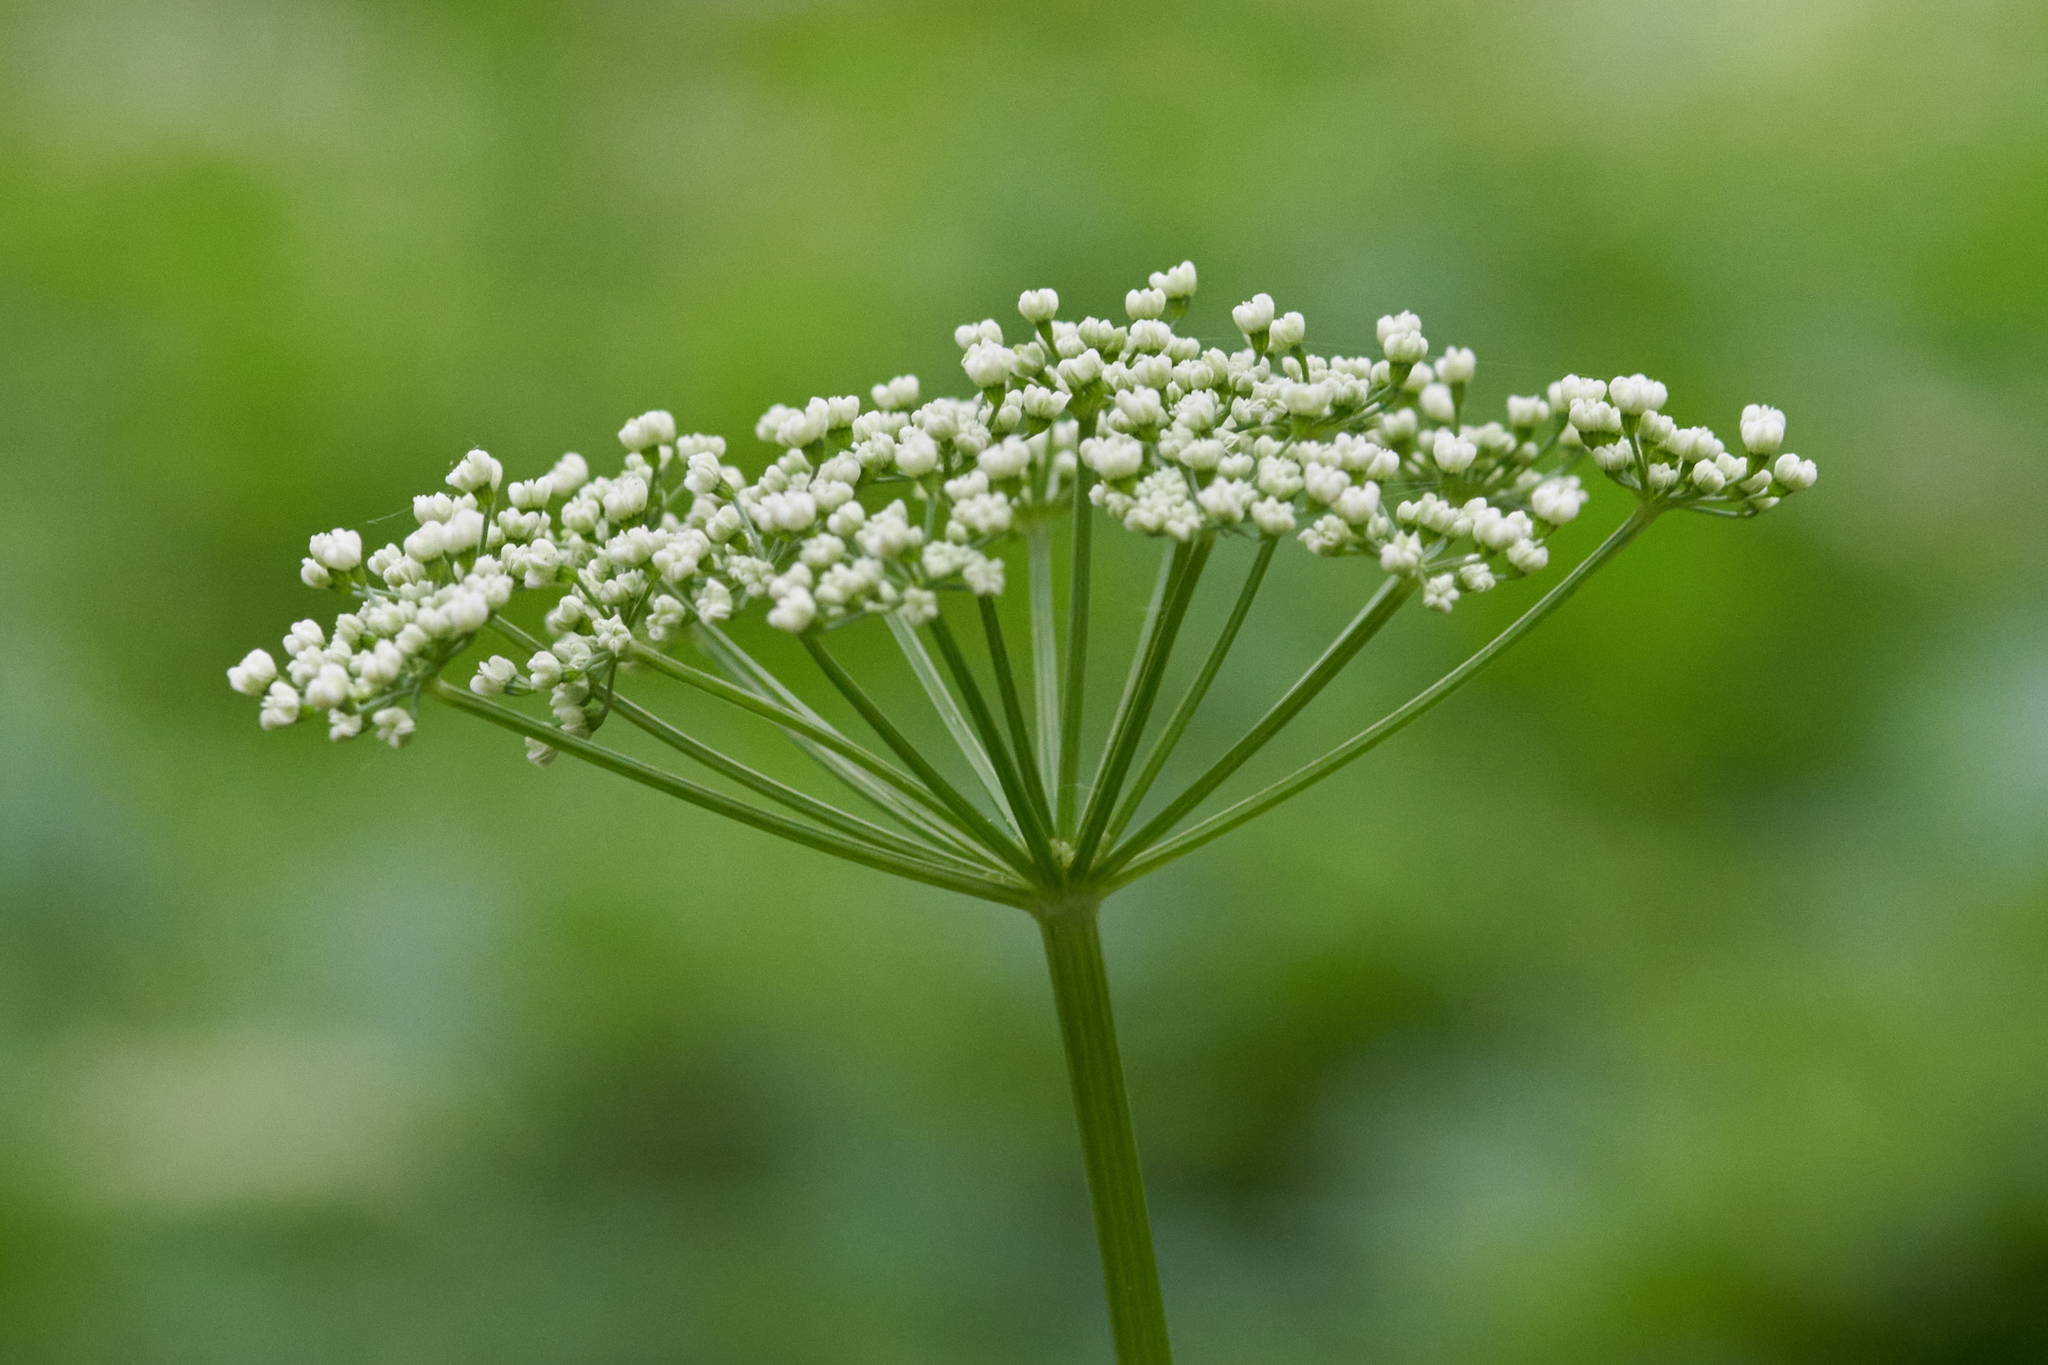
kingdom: Plantae
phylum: Tracheophyta
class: Magnoliopsida
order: Apiales
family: Apiaceae
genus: Aegopodium
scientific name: Aegopodium podagraria
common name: Ground-elder
